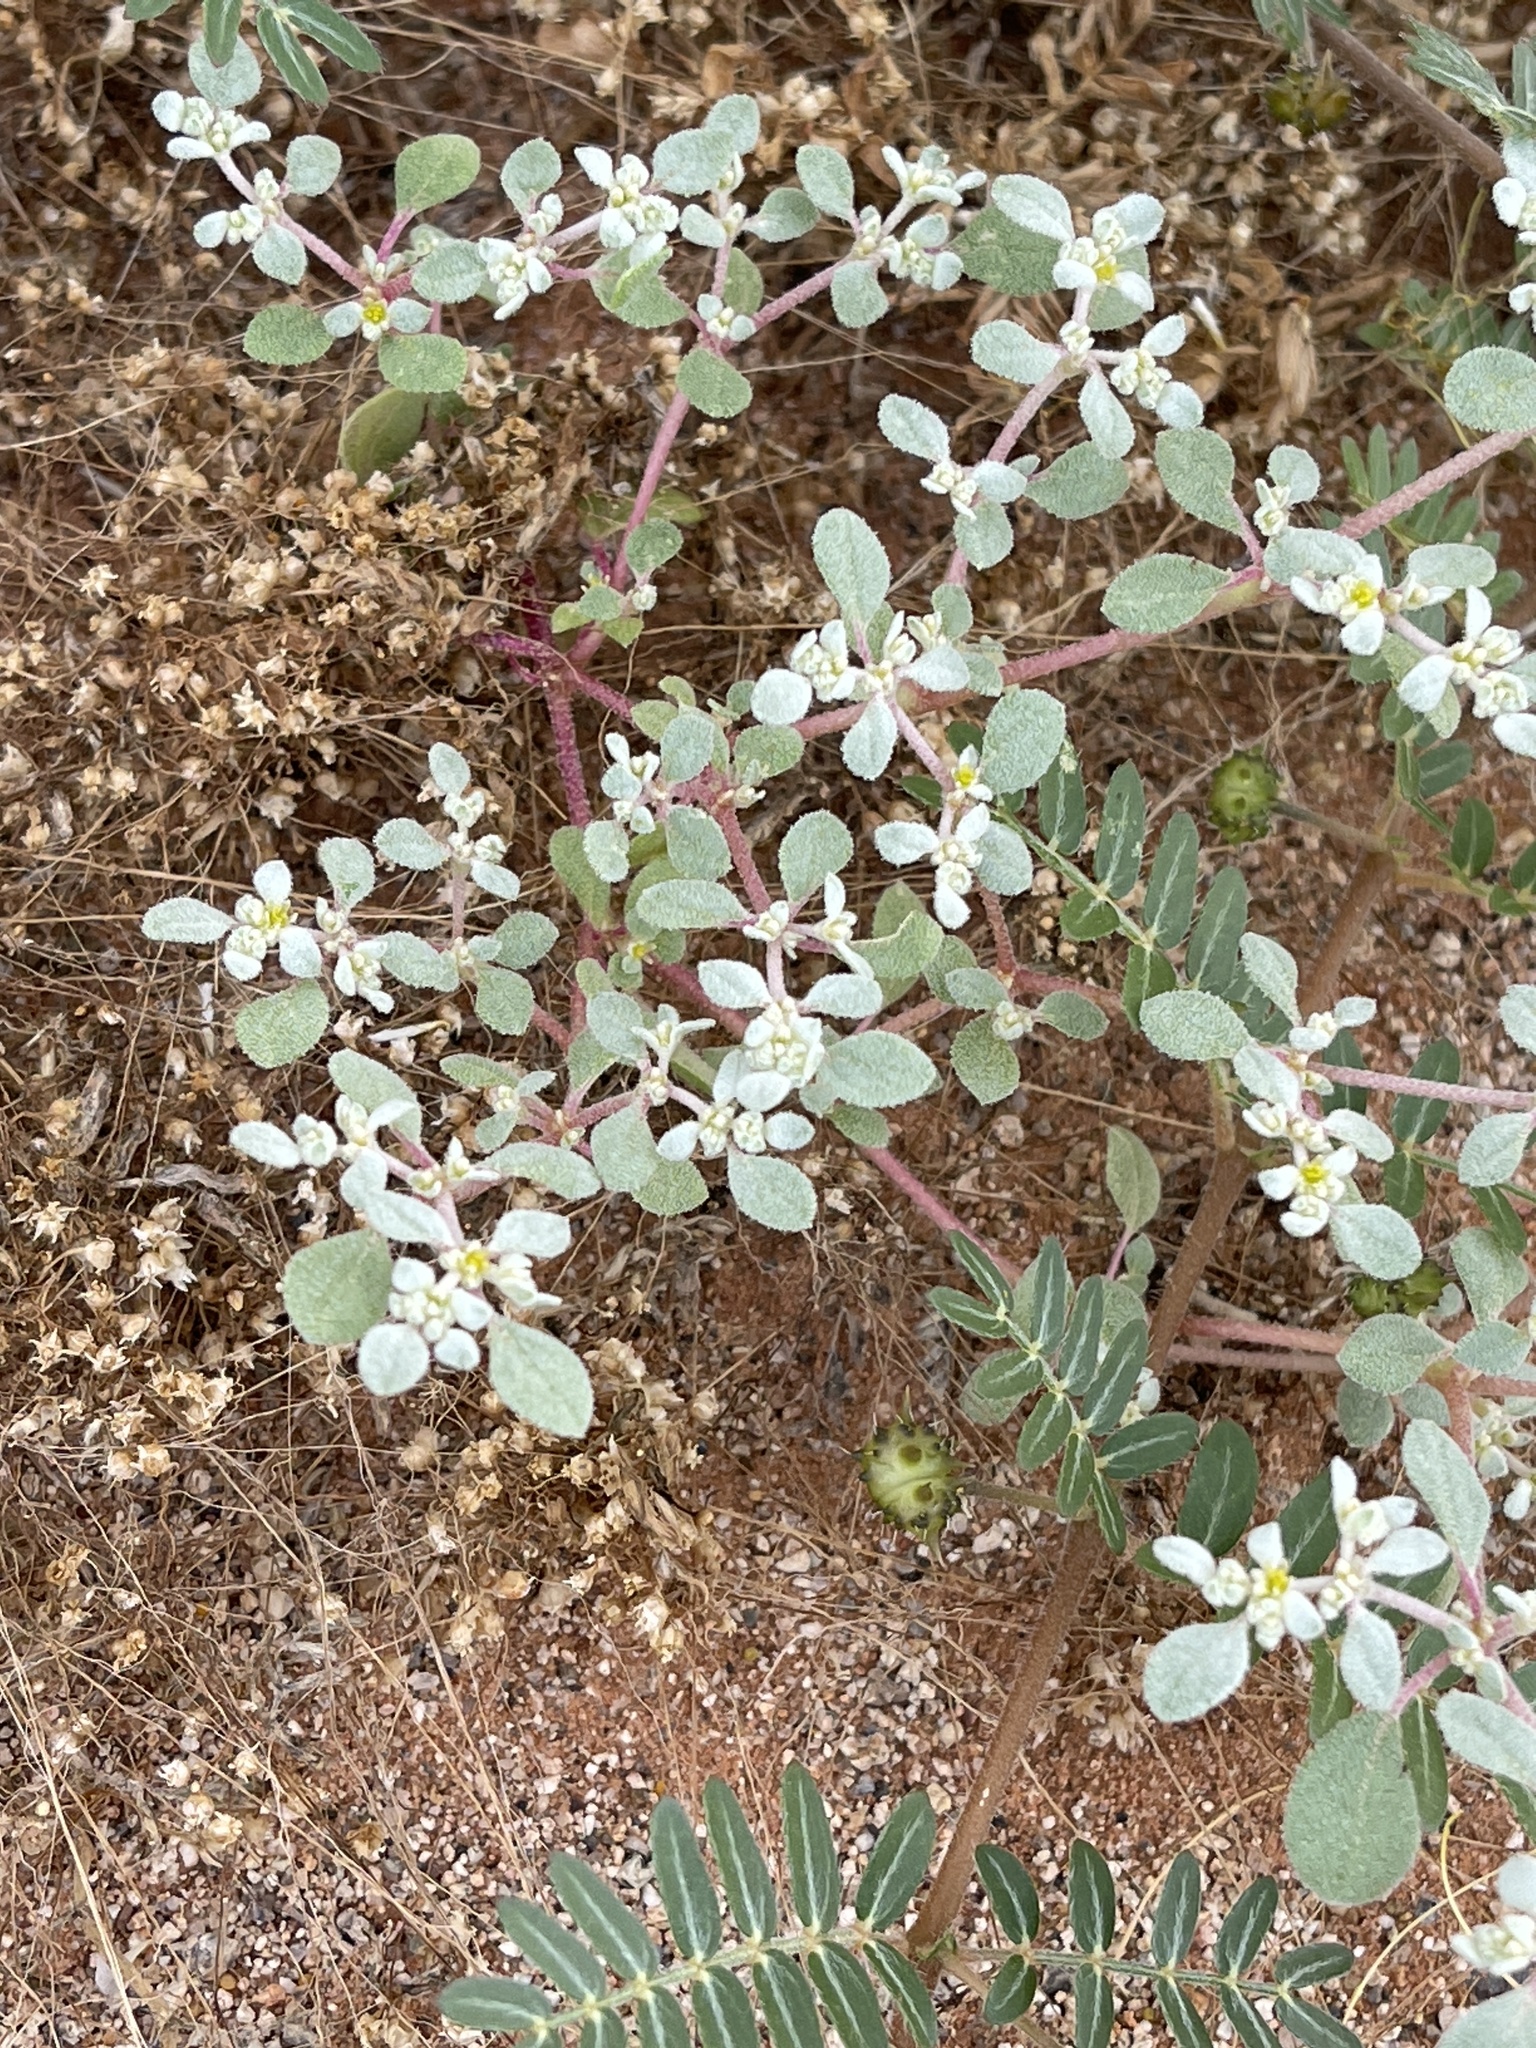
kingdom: Plantae
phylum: Tracheophyta
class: Magnoliopsida
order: Caryophyllales
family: Amaranthaceae
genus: Tidestromia
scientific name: Tidestromia lanuginosa
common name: Woolly tidestromia
